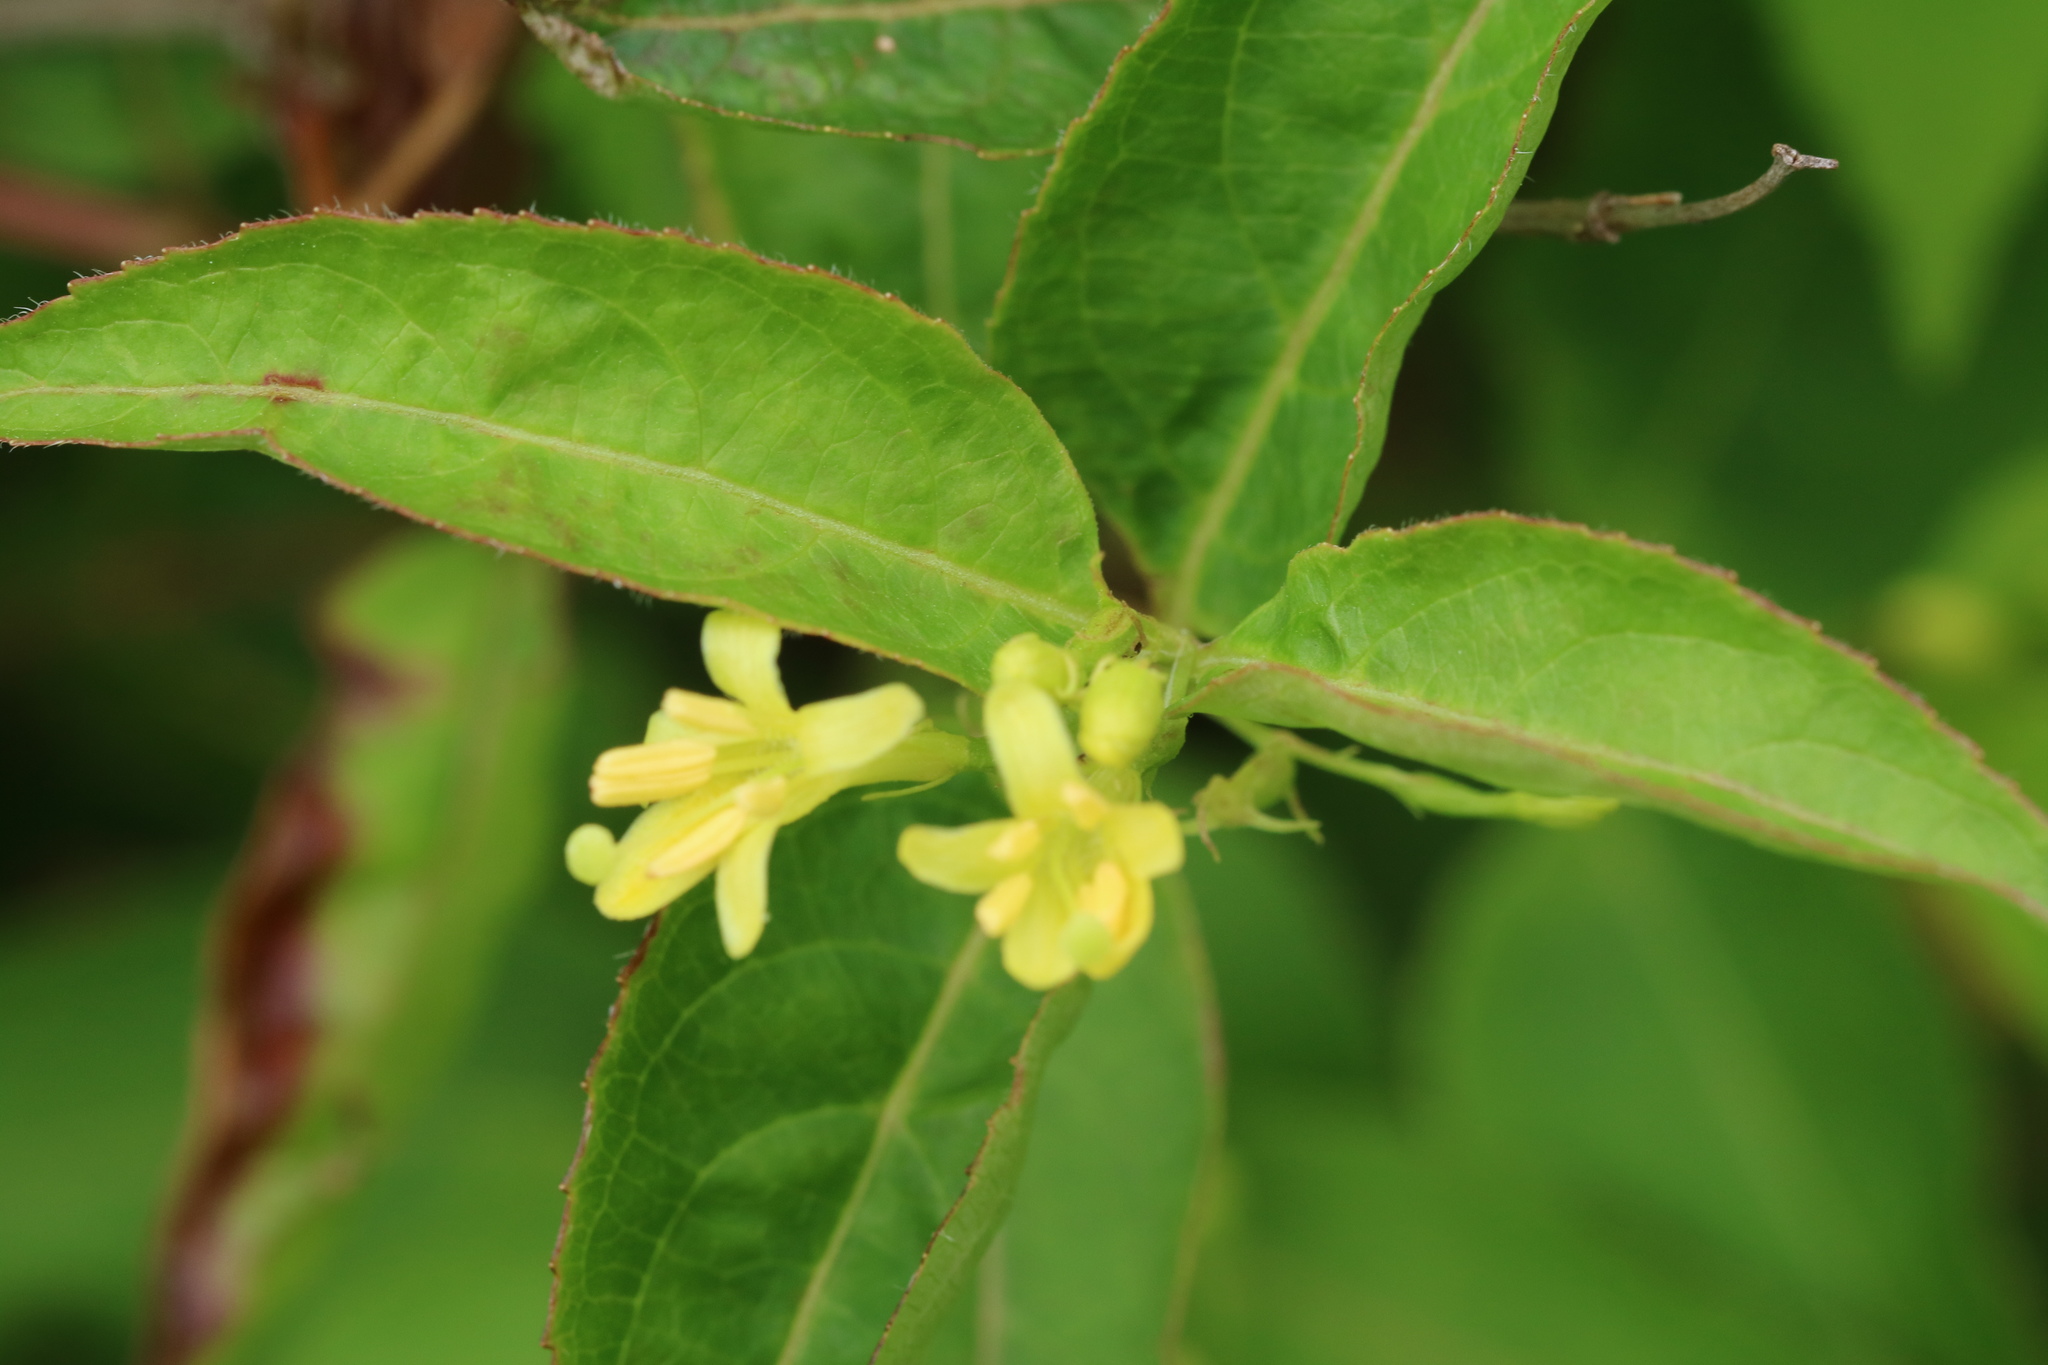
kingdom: Plantae
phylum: Tracheophyta
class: Magnoliopsida
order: Dipsacales
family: Caprifoliaceae
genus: Diervilla
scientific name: Diervilla lonicera
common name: Bush-honeysuckle
